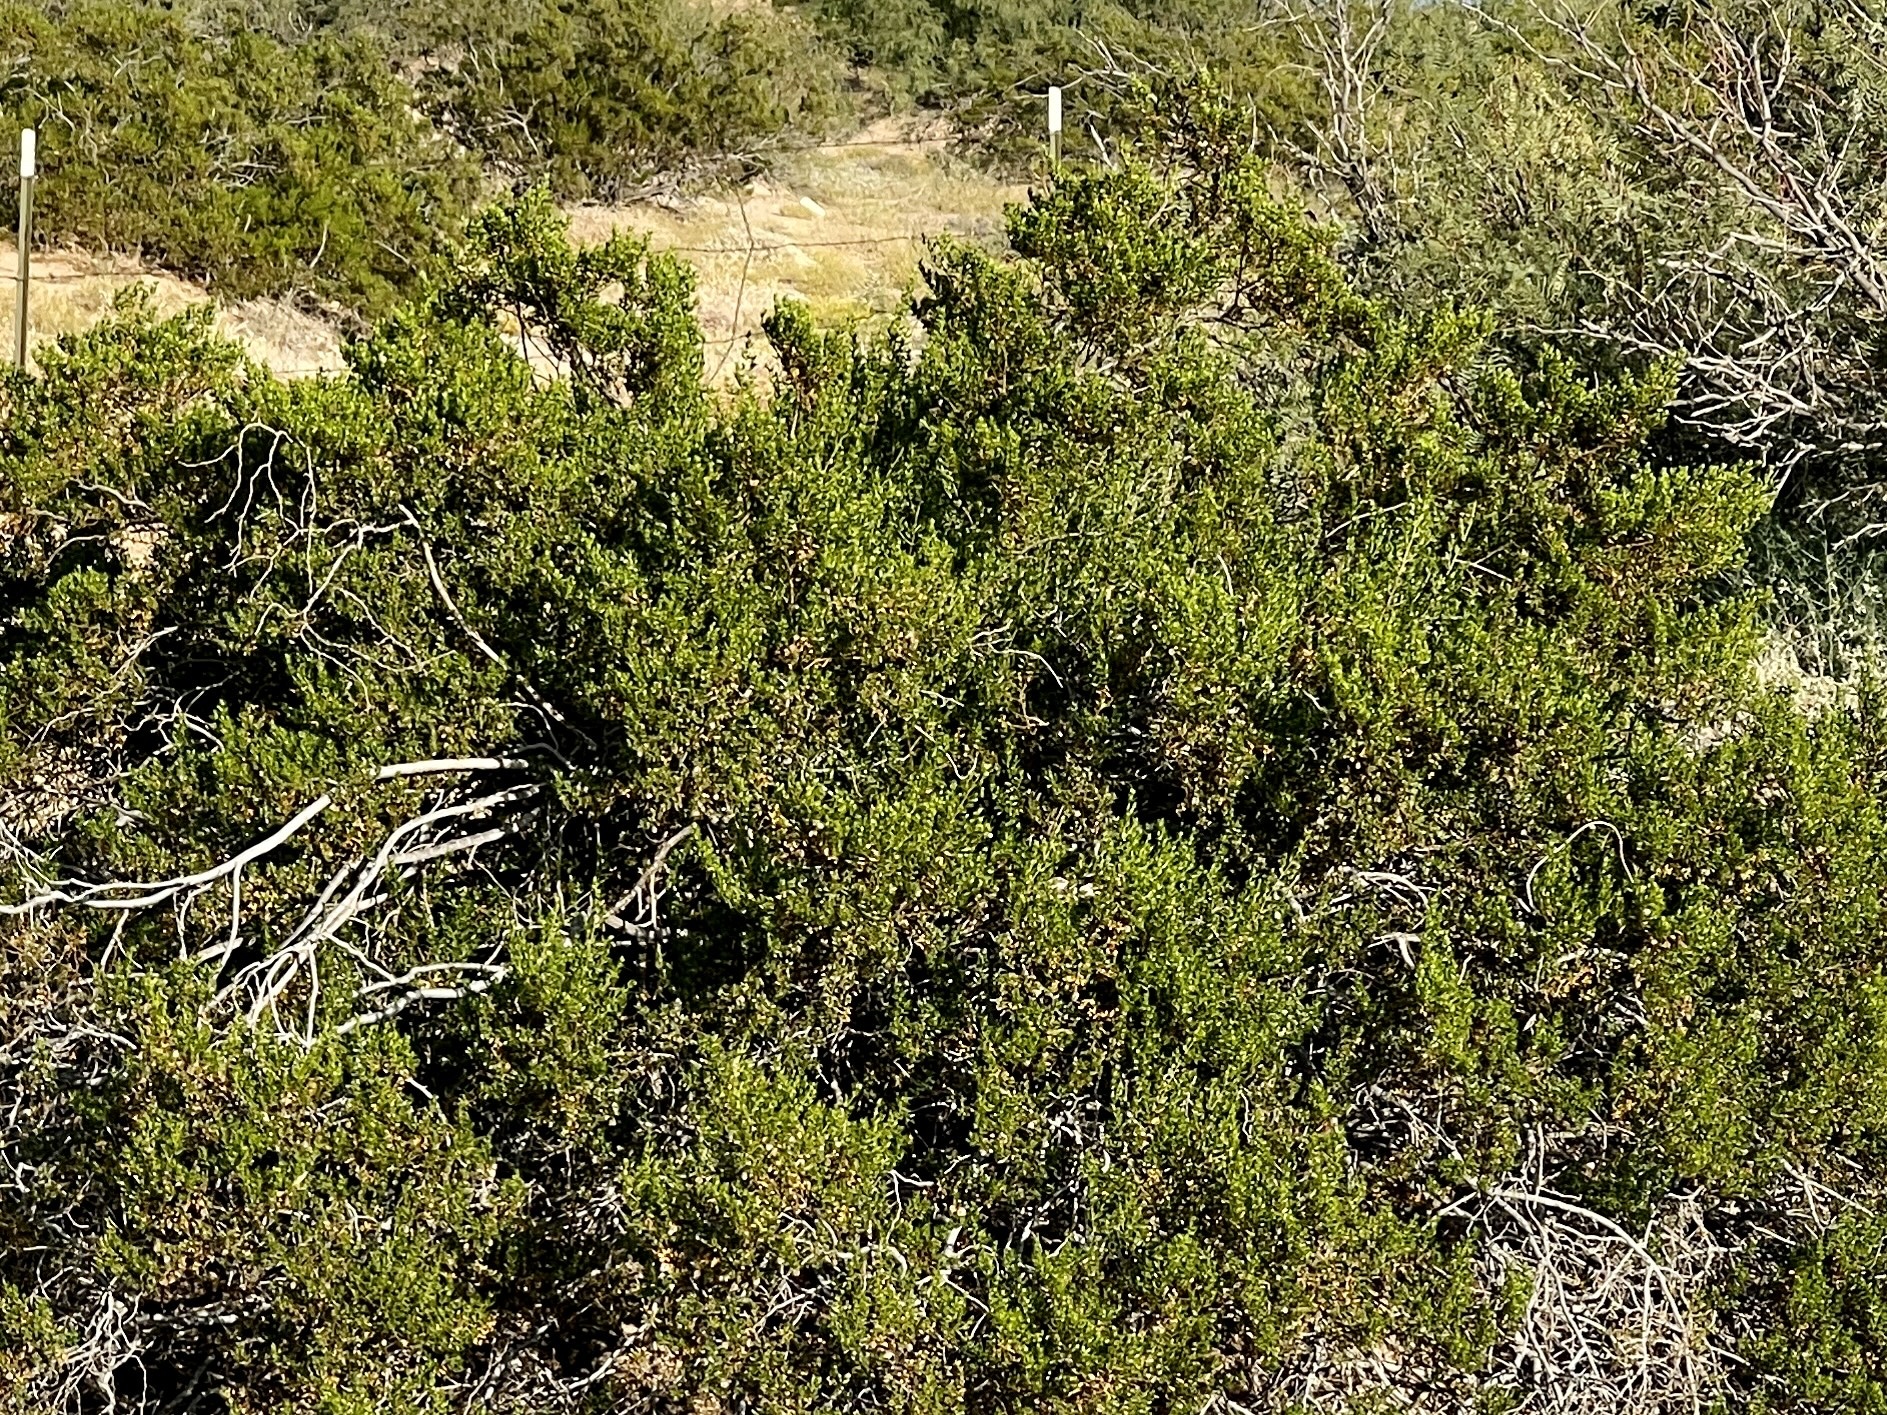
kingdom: Plantae
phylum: Tracheophyta
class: Magnoliopsida
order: Zygophyllales
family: Zygophyllaceae
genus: Larrea
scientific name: Larrea tridentata
